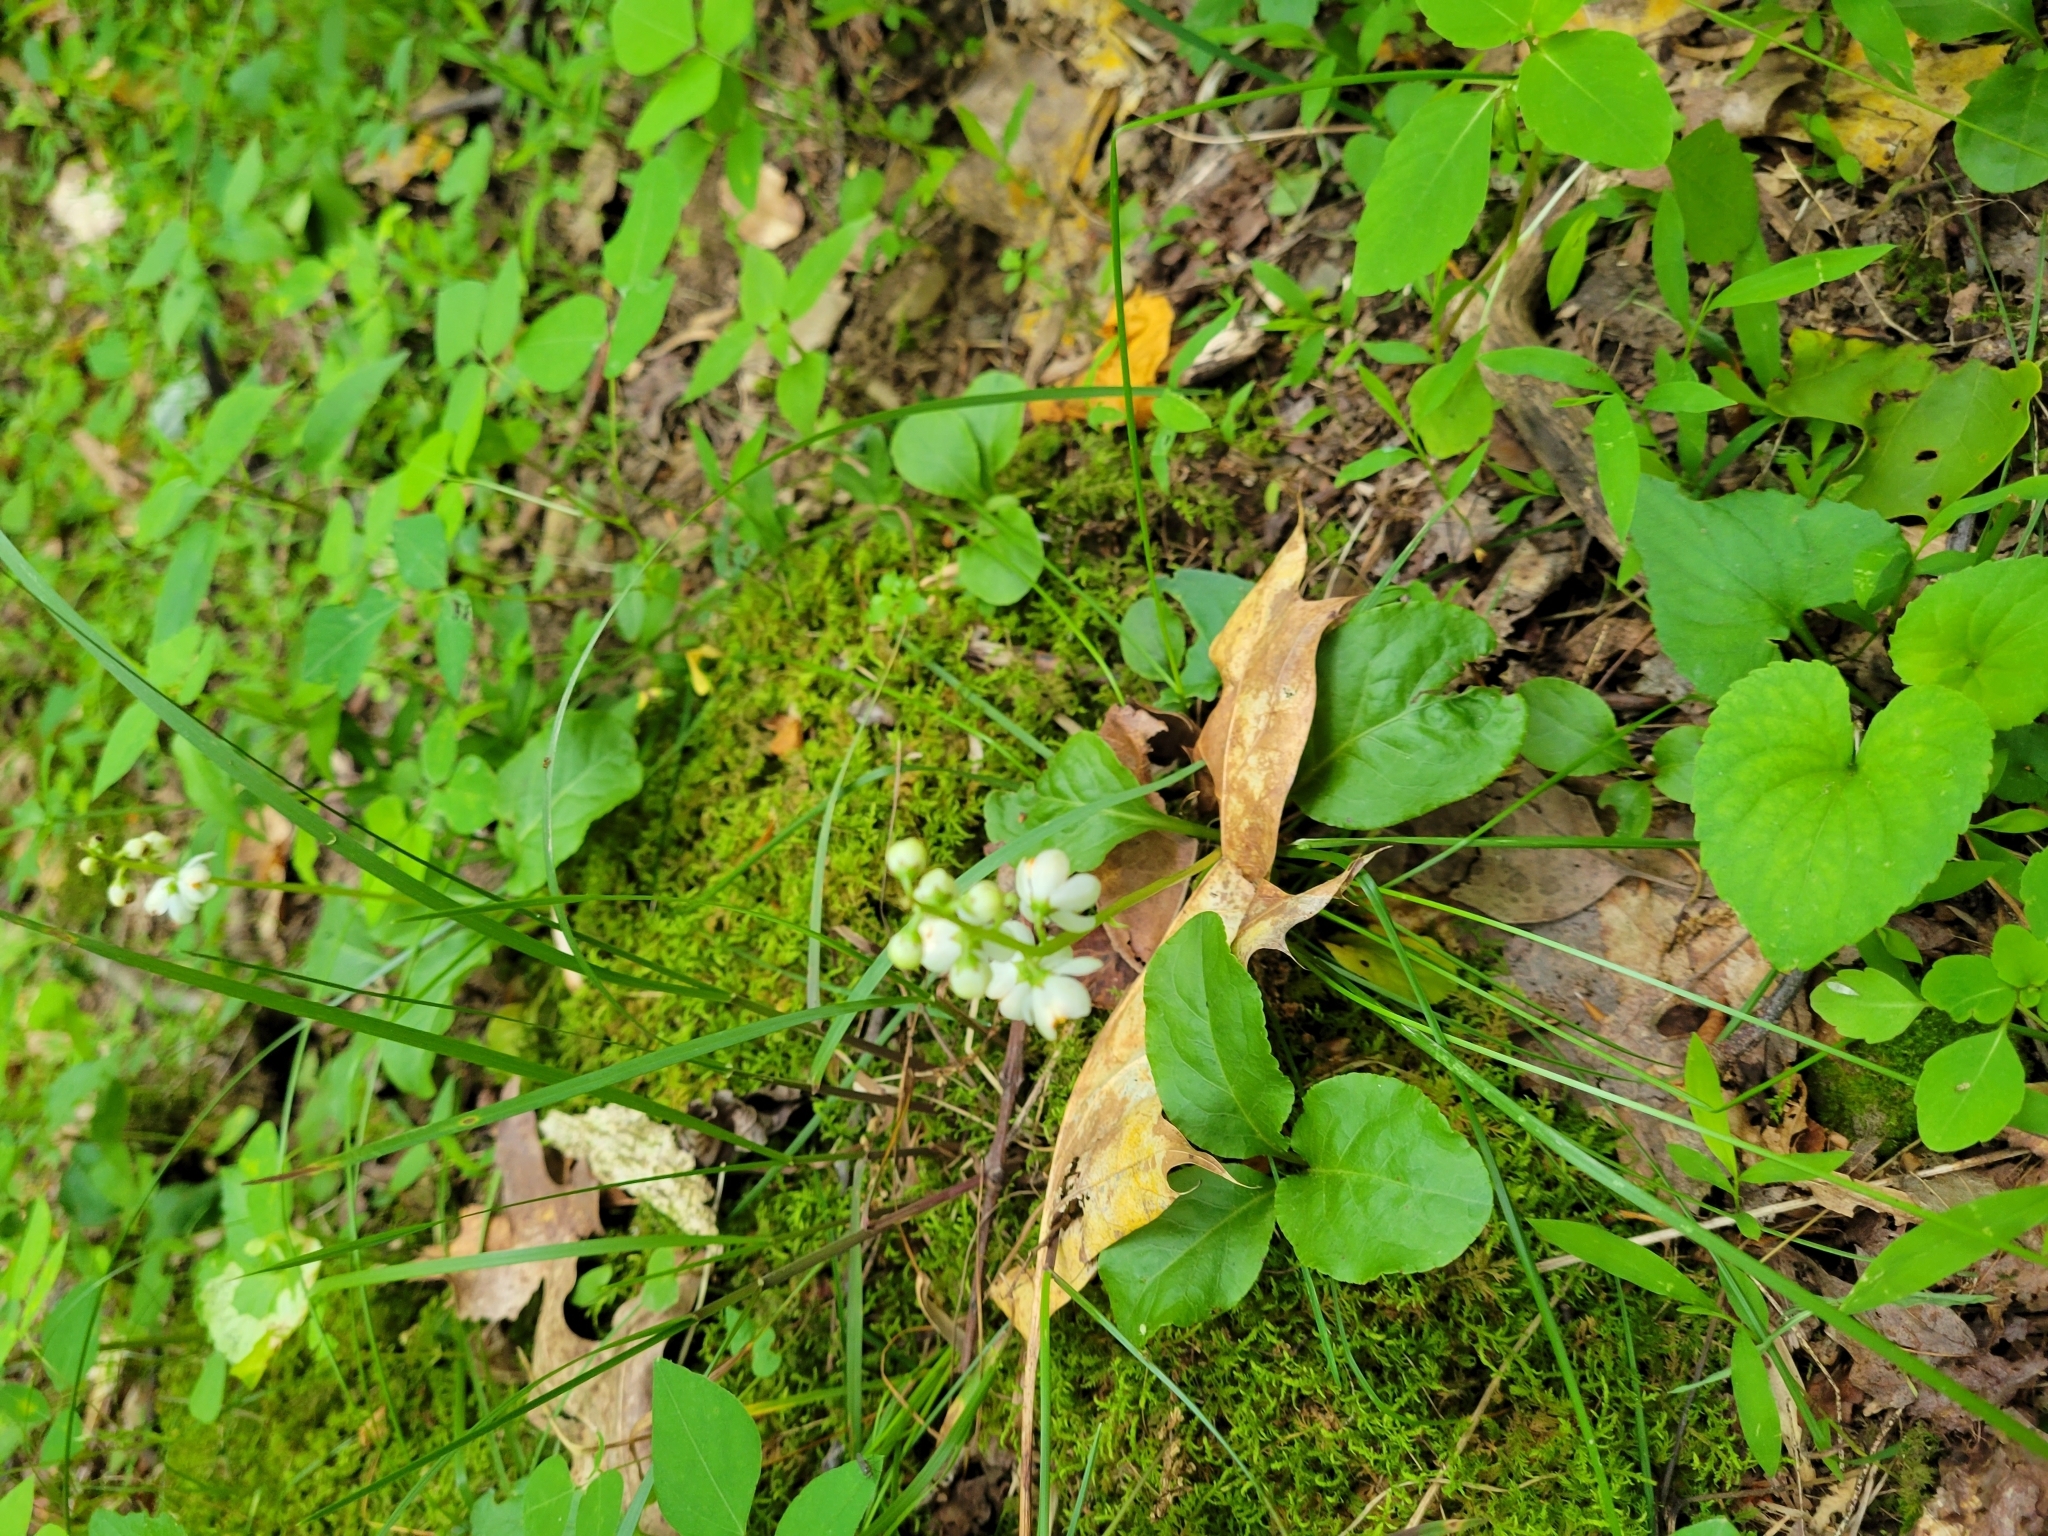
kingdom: Plantae
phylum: Tracheophyta
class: Magnoliopsida
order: Ericales
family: Ericaceae
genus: Pyrola
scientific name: Pyrola elliptica
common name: Shinleaf
